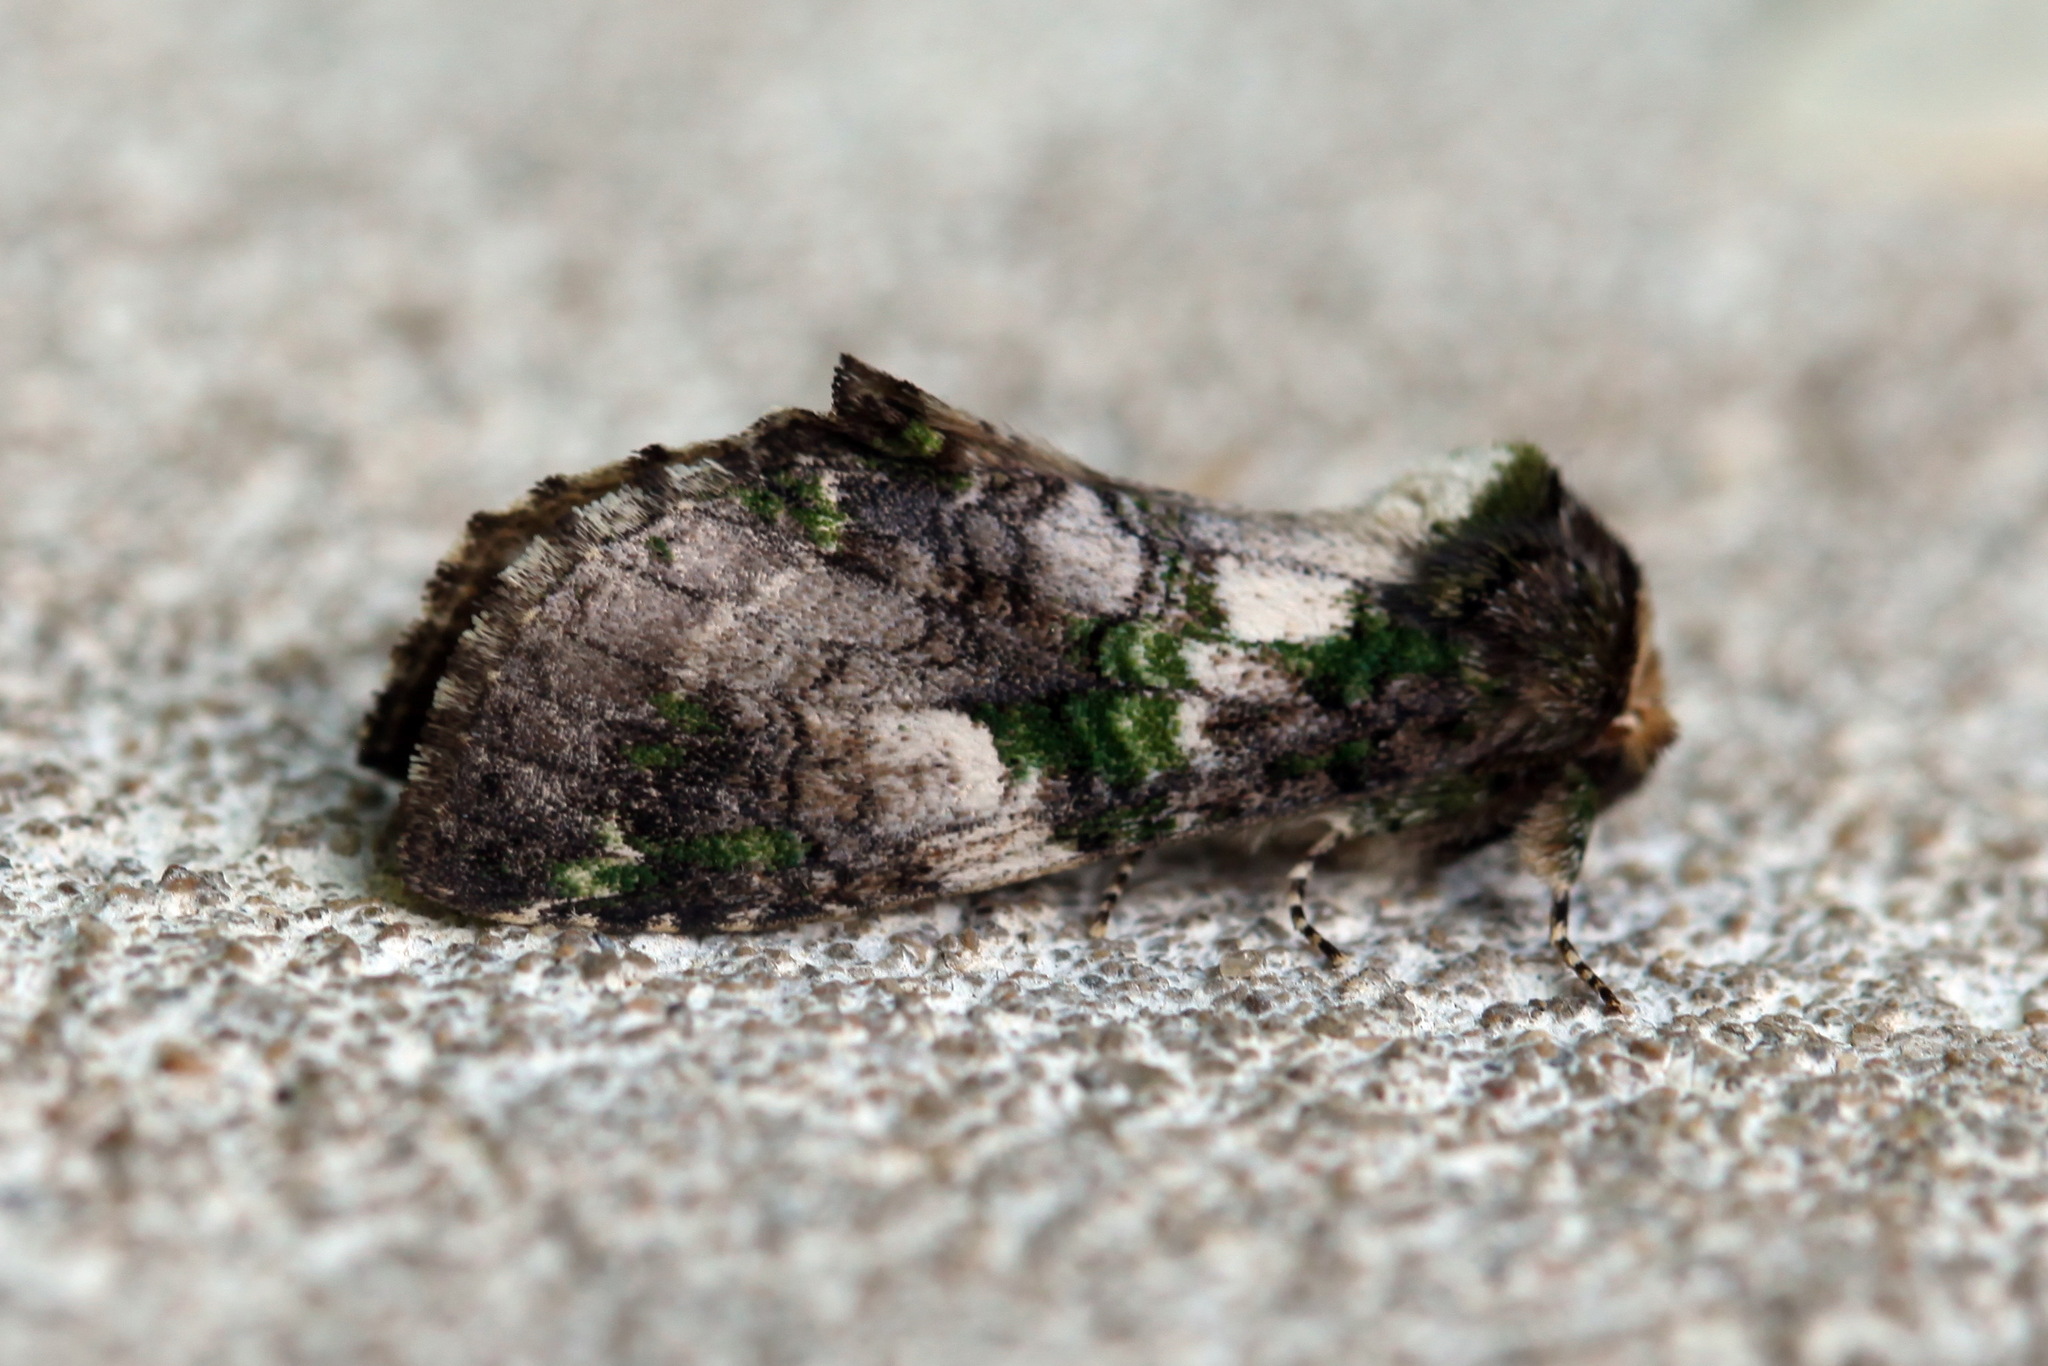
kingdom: Animalia
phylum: Arthropoda
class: Insecta
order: Lepidoptera
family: Notodontidae
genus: Ellida
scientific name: Ellida viridimixta
